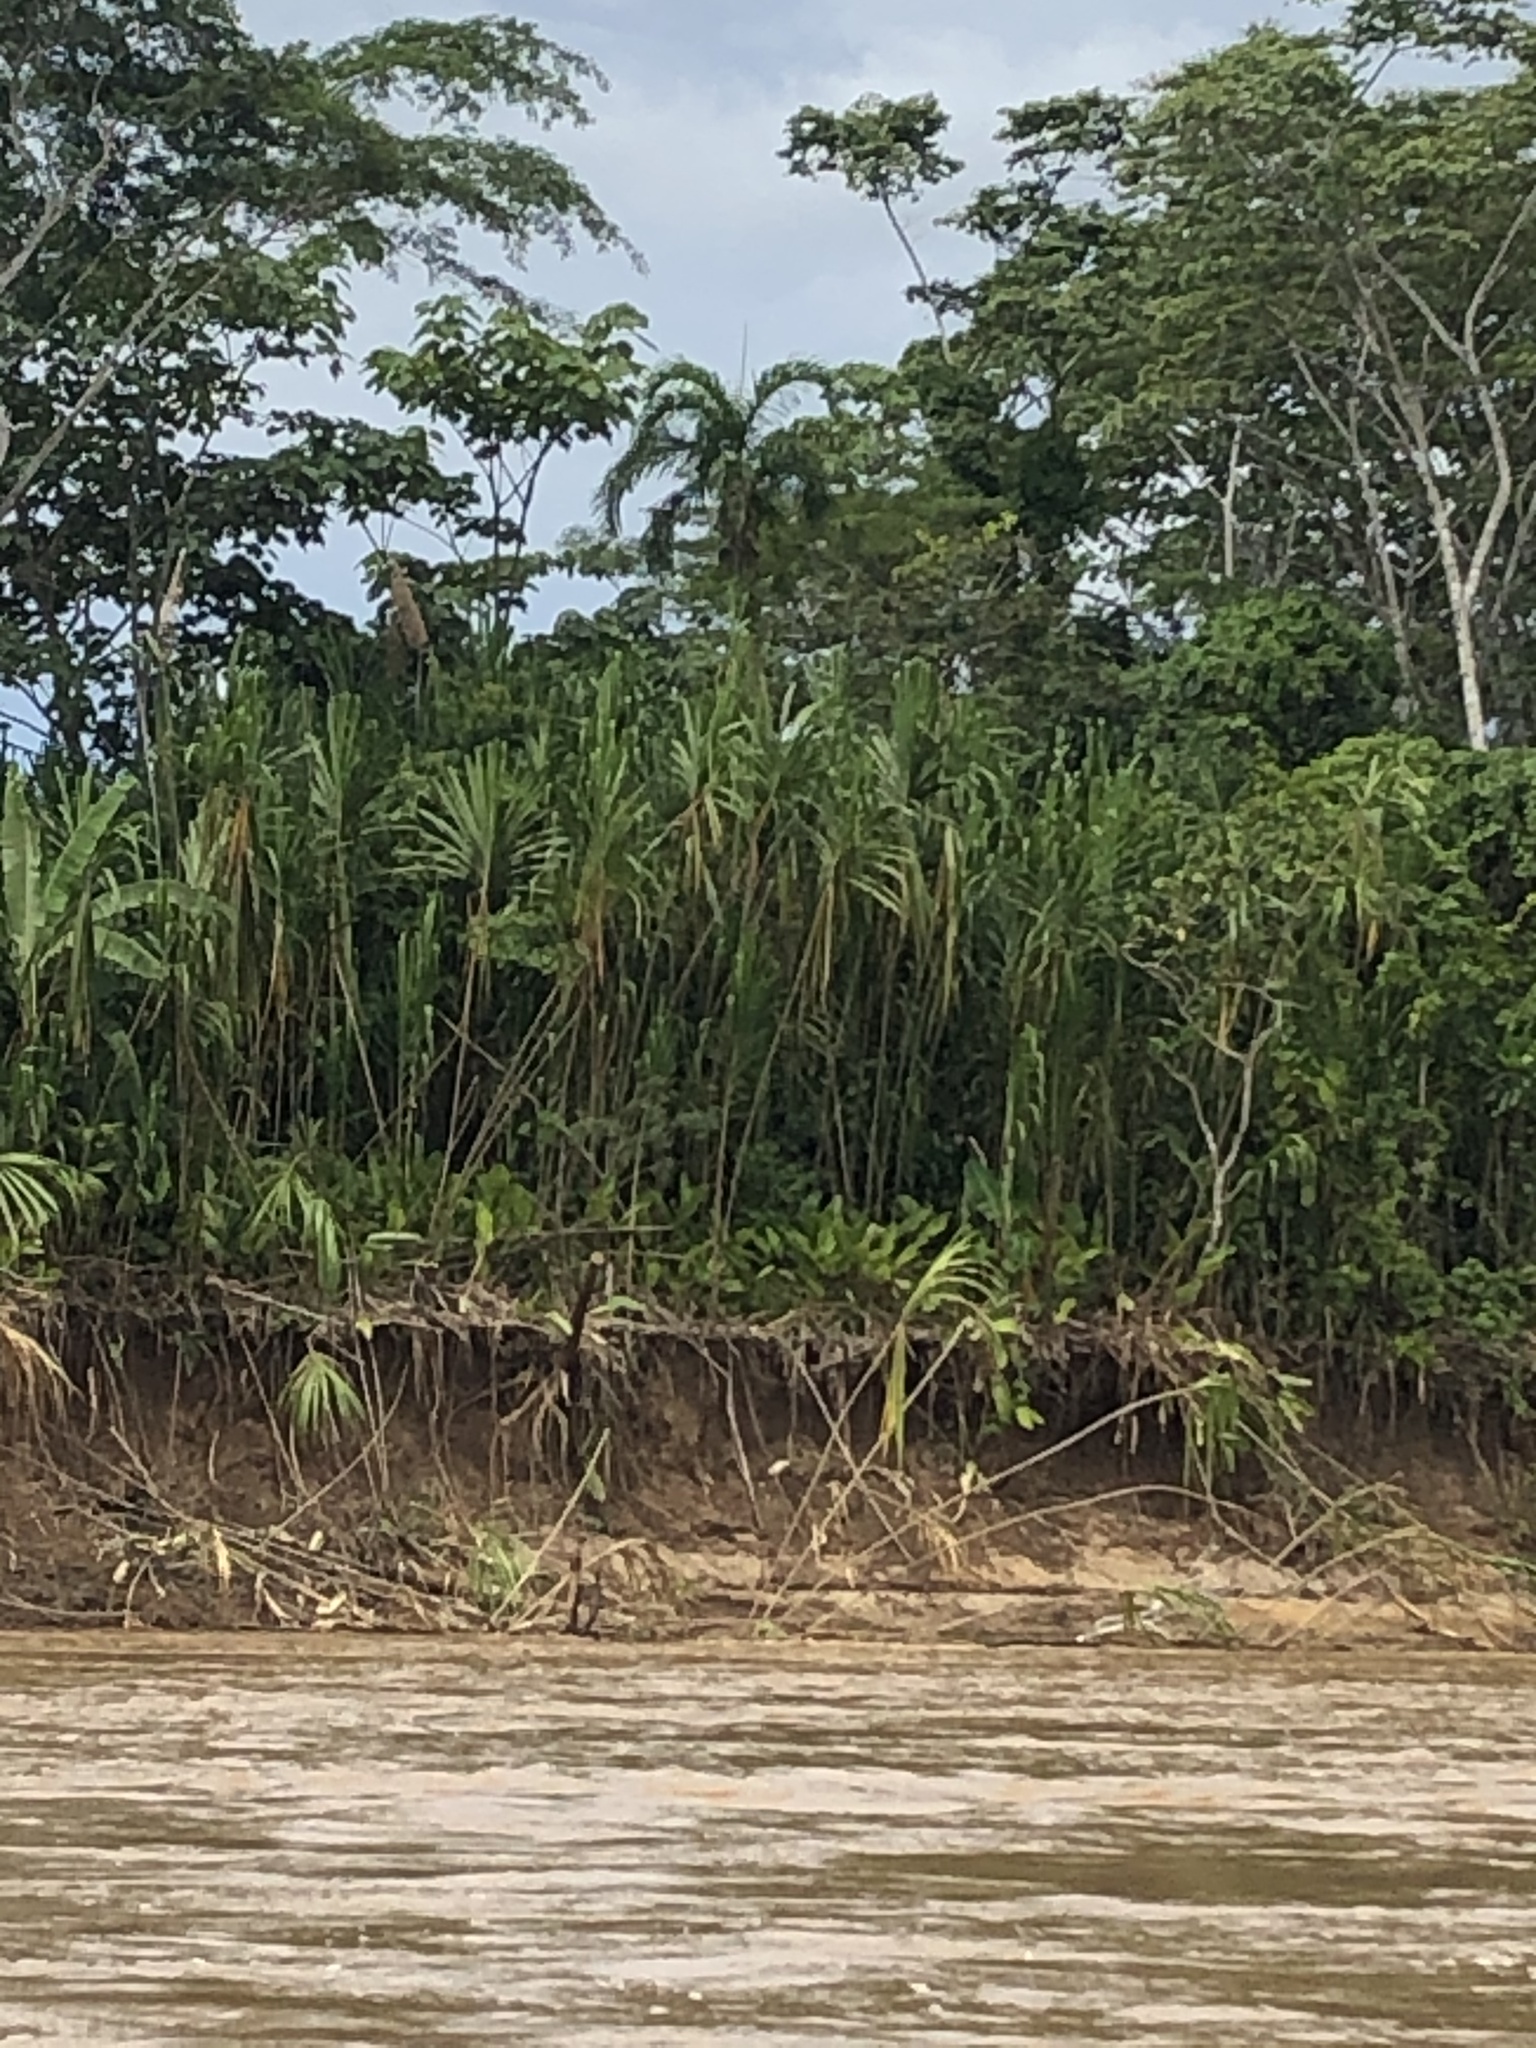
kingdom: Plantae
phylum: Tracheophyta
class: Liliopsida
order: Poales
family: Poaceae
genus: Gynerium
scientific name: Gynerium sagittatum
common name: Wild cane
